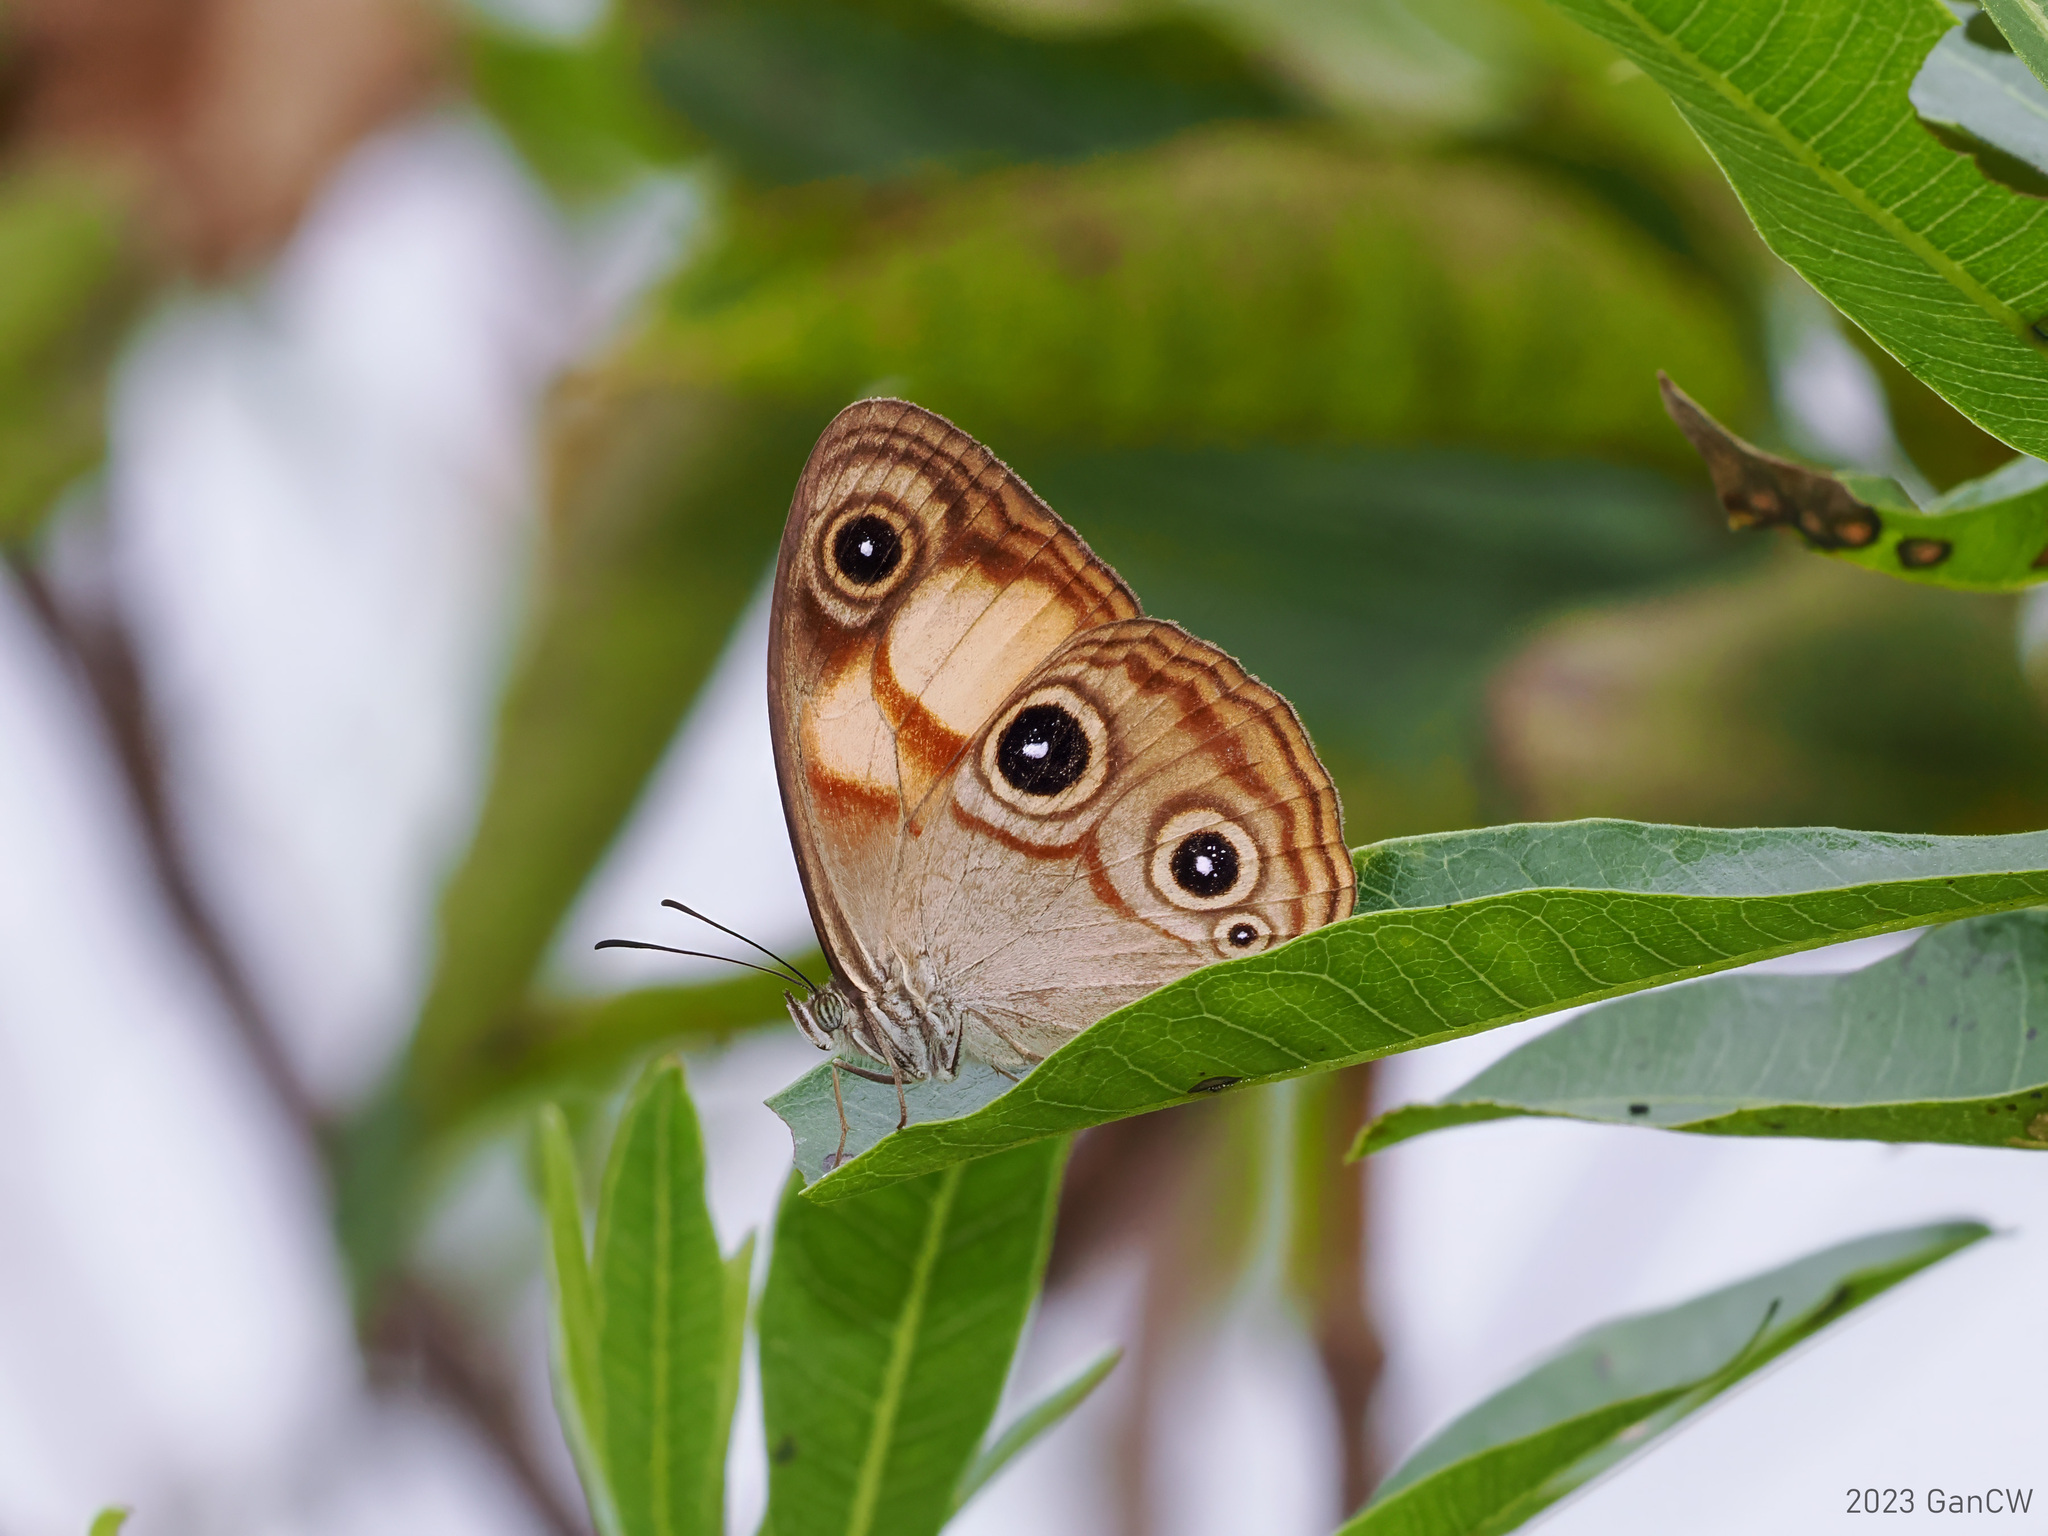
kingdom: Animalia
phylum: Arthropoda
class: Insecta
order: Lepidoptera
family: Nymphalidae
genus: Mycalesis
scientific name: Mycalesis
